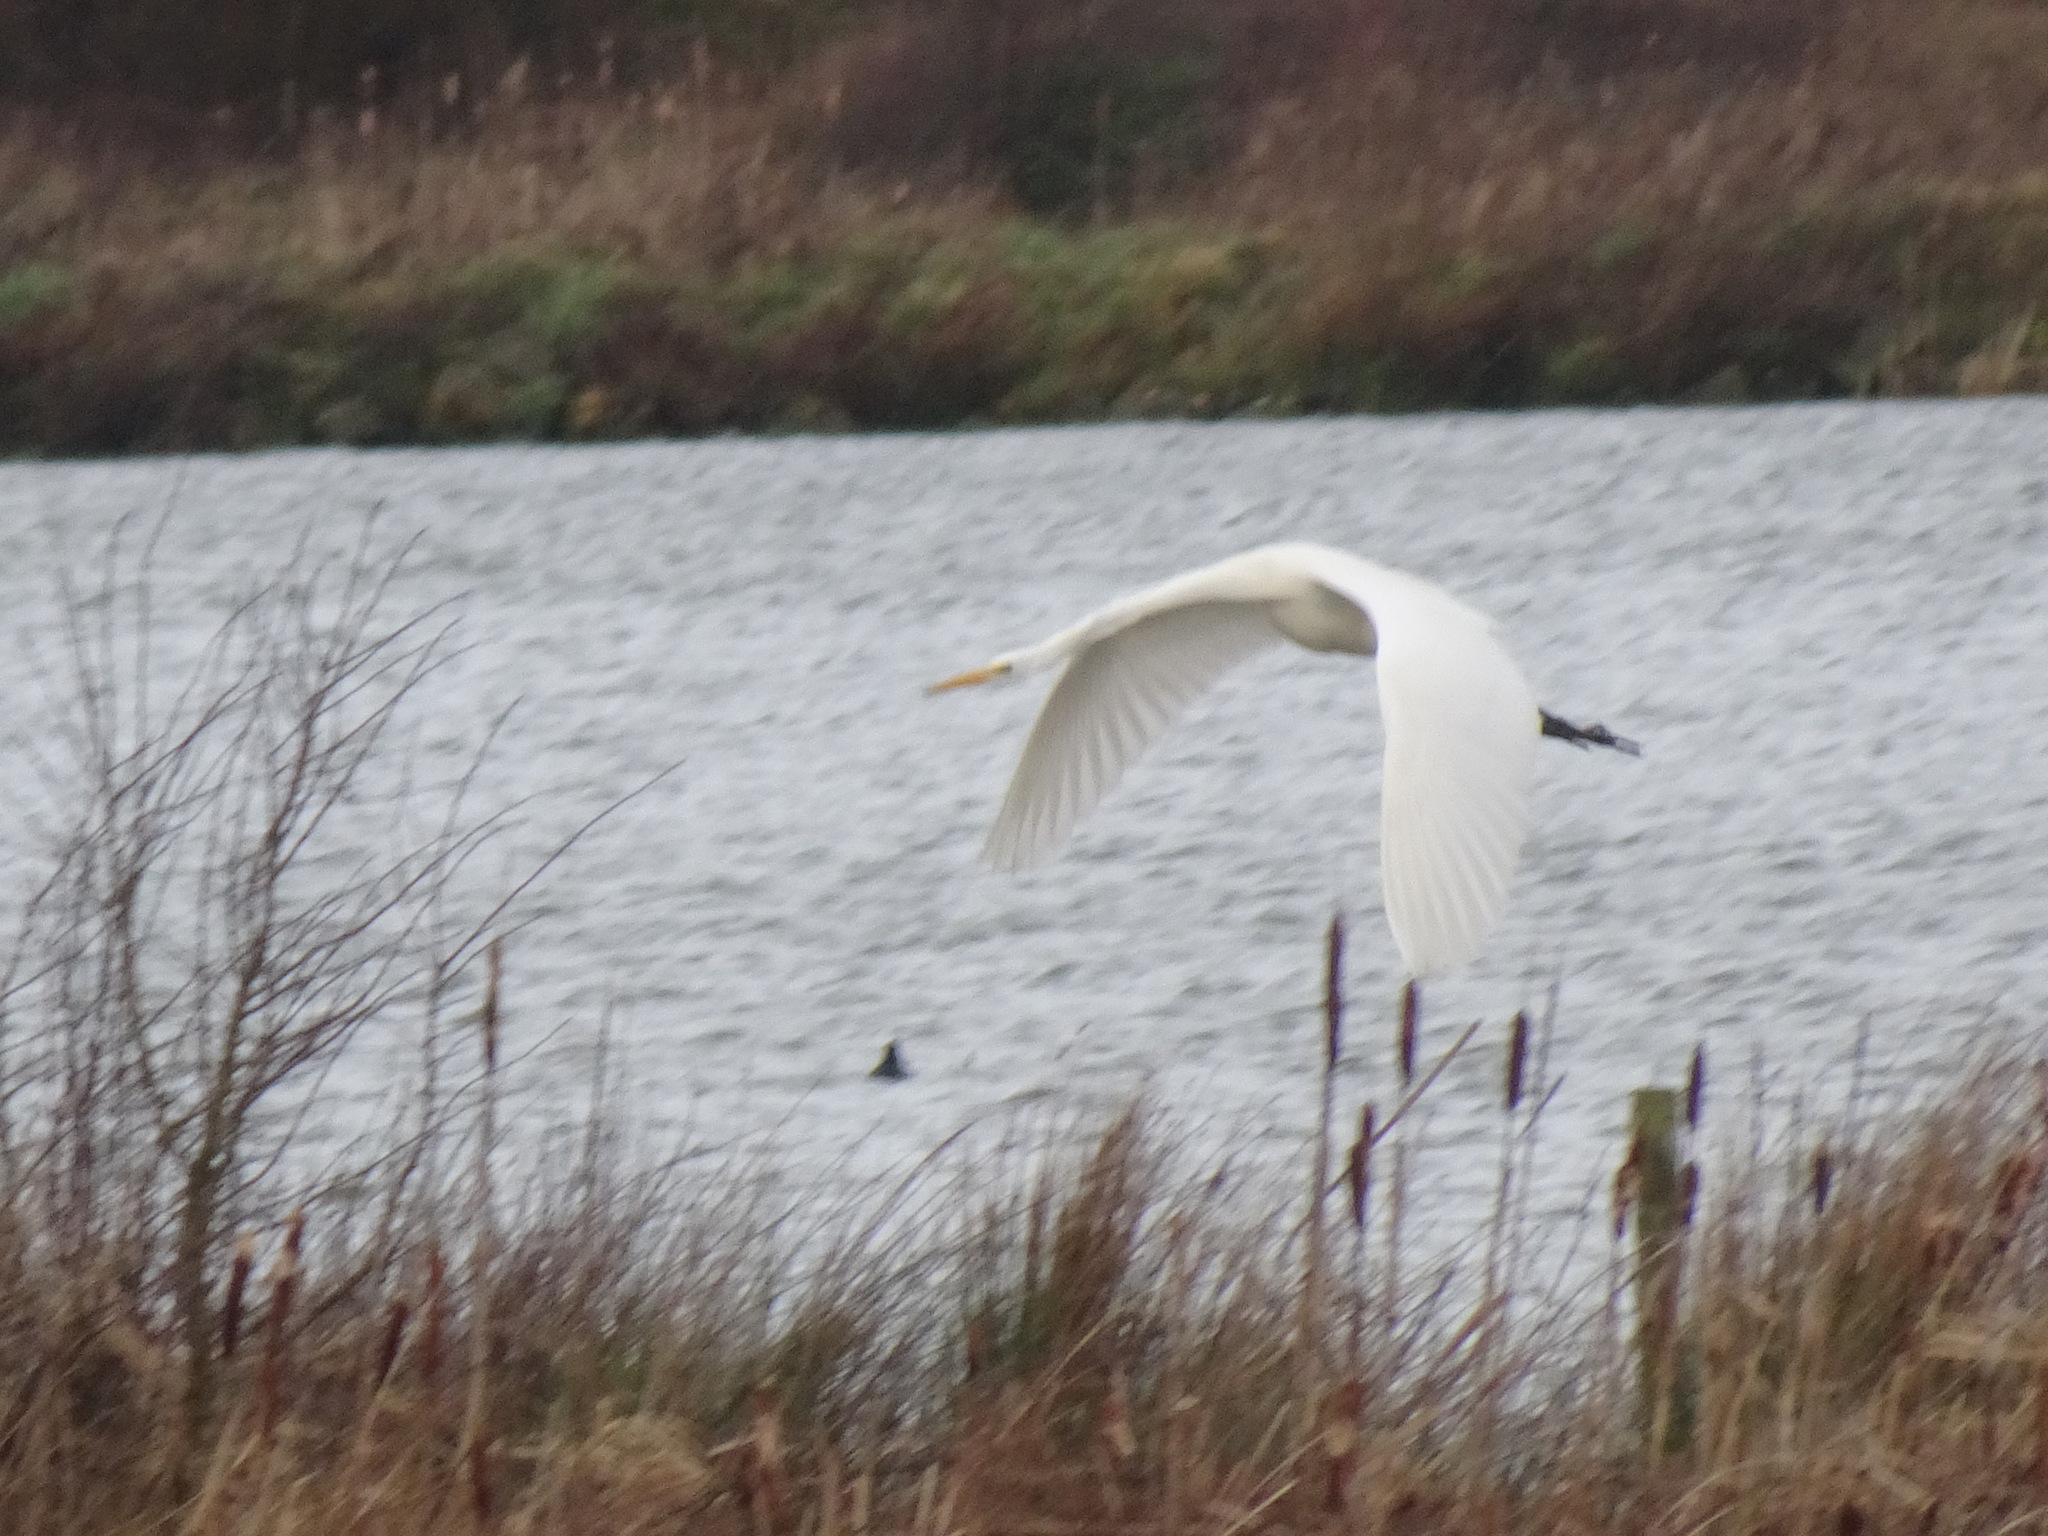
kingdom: Animalia
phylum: Chordata
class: Aves
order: Pelecaniformes
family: Ardeidae
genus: Ardea
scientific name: Ardea alba
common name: Great egret
